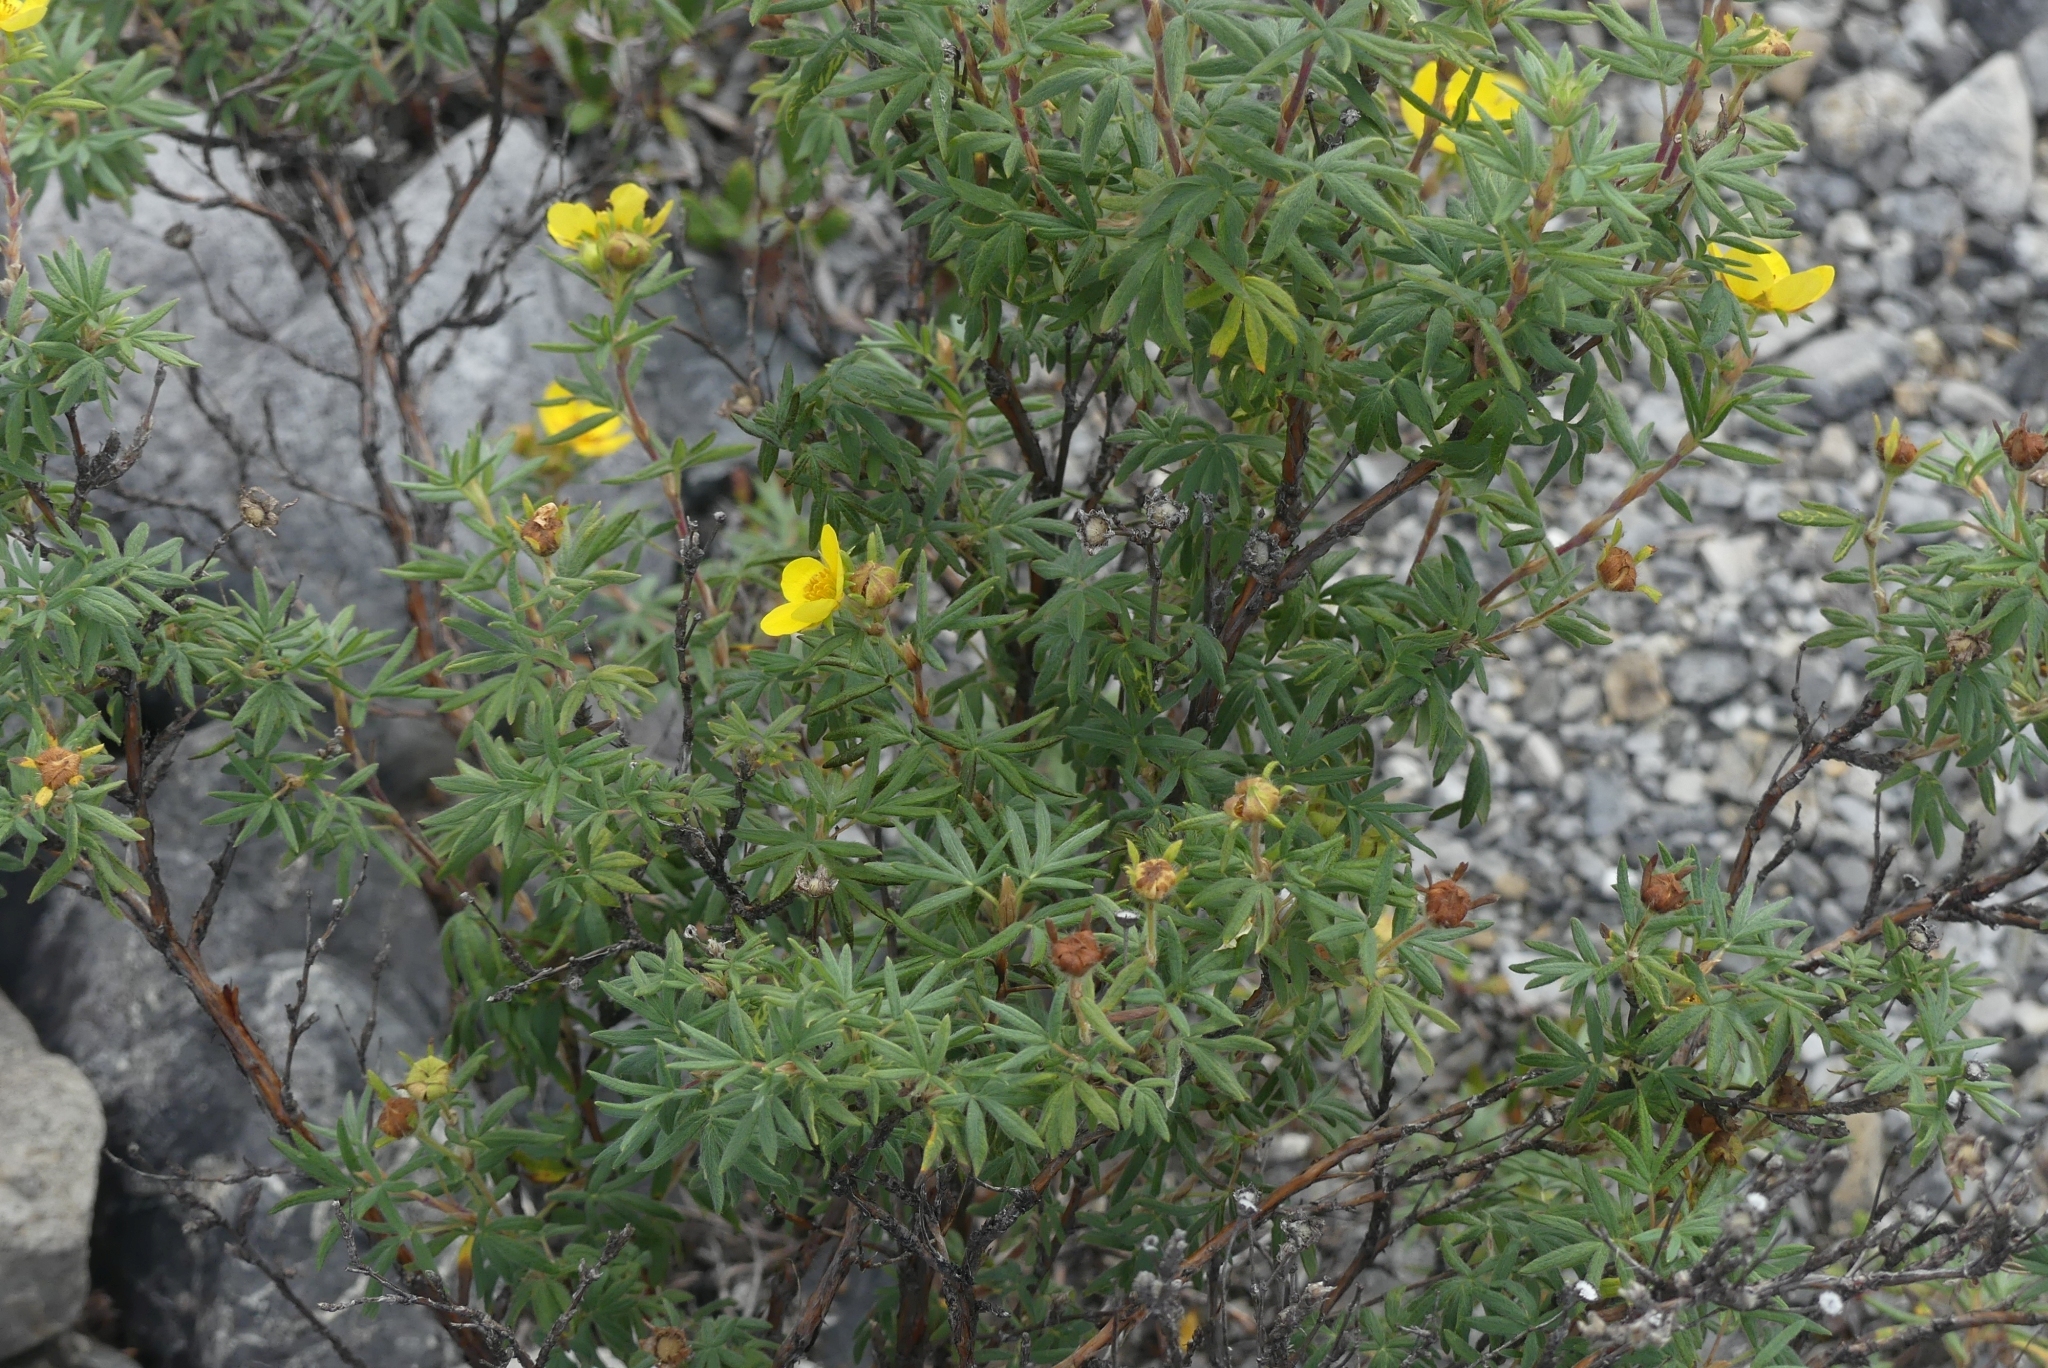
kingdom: Plantae
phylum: Tracheophyta
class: Magnoliopsida
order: Rosales
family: Rosaceae
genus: Dasiphora
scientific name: Dasiphora fruticosa
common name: Shrubby cinquefoil
